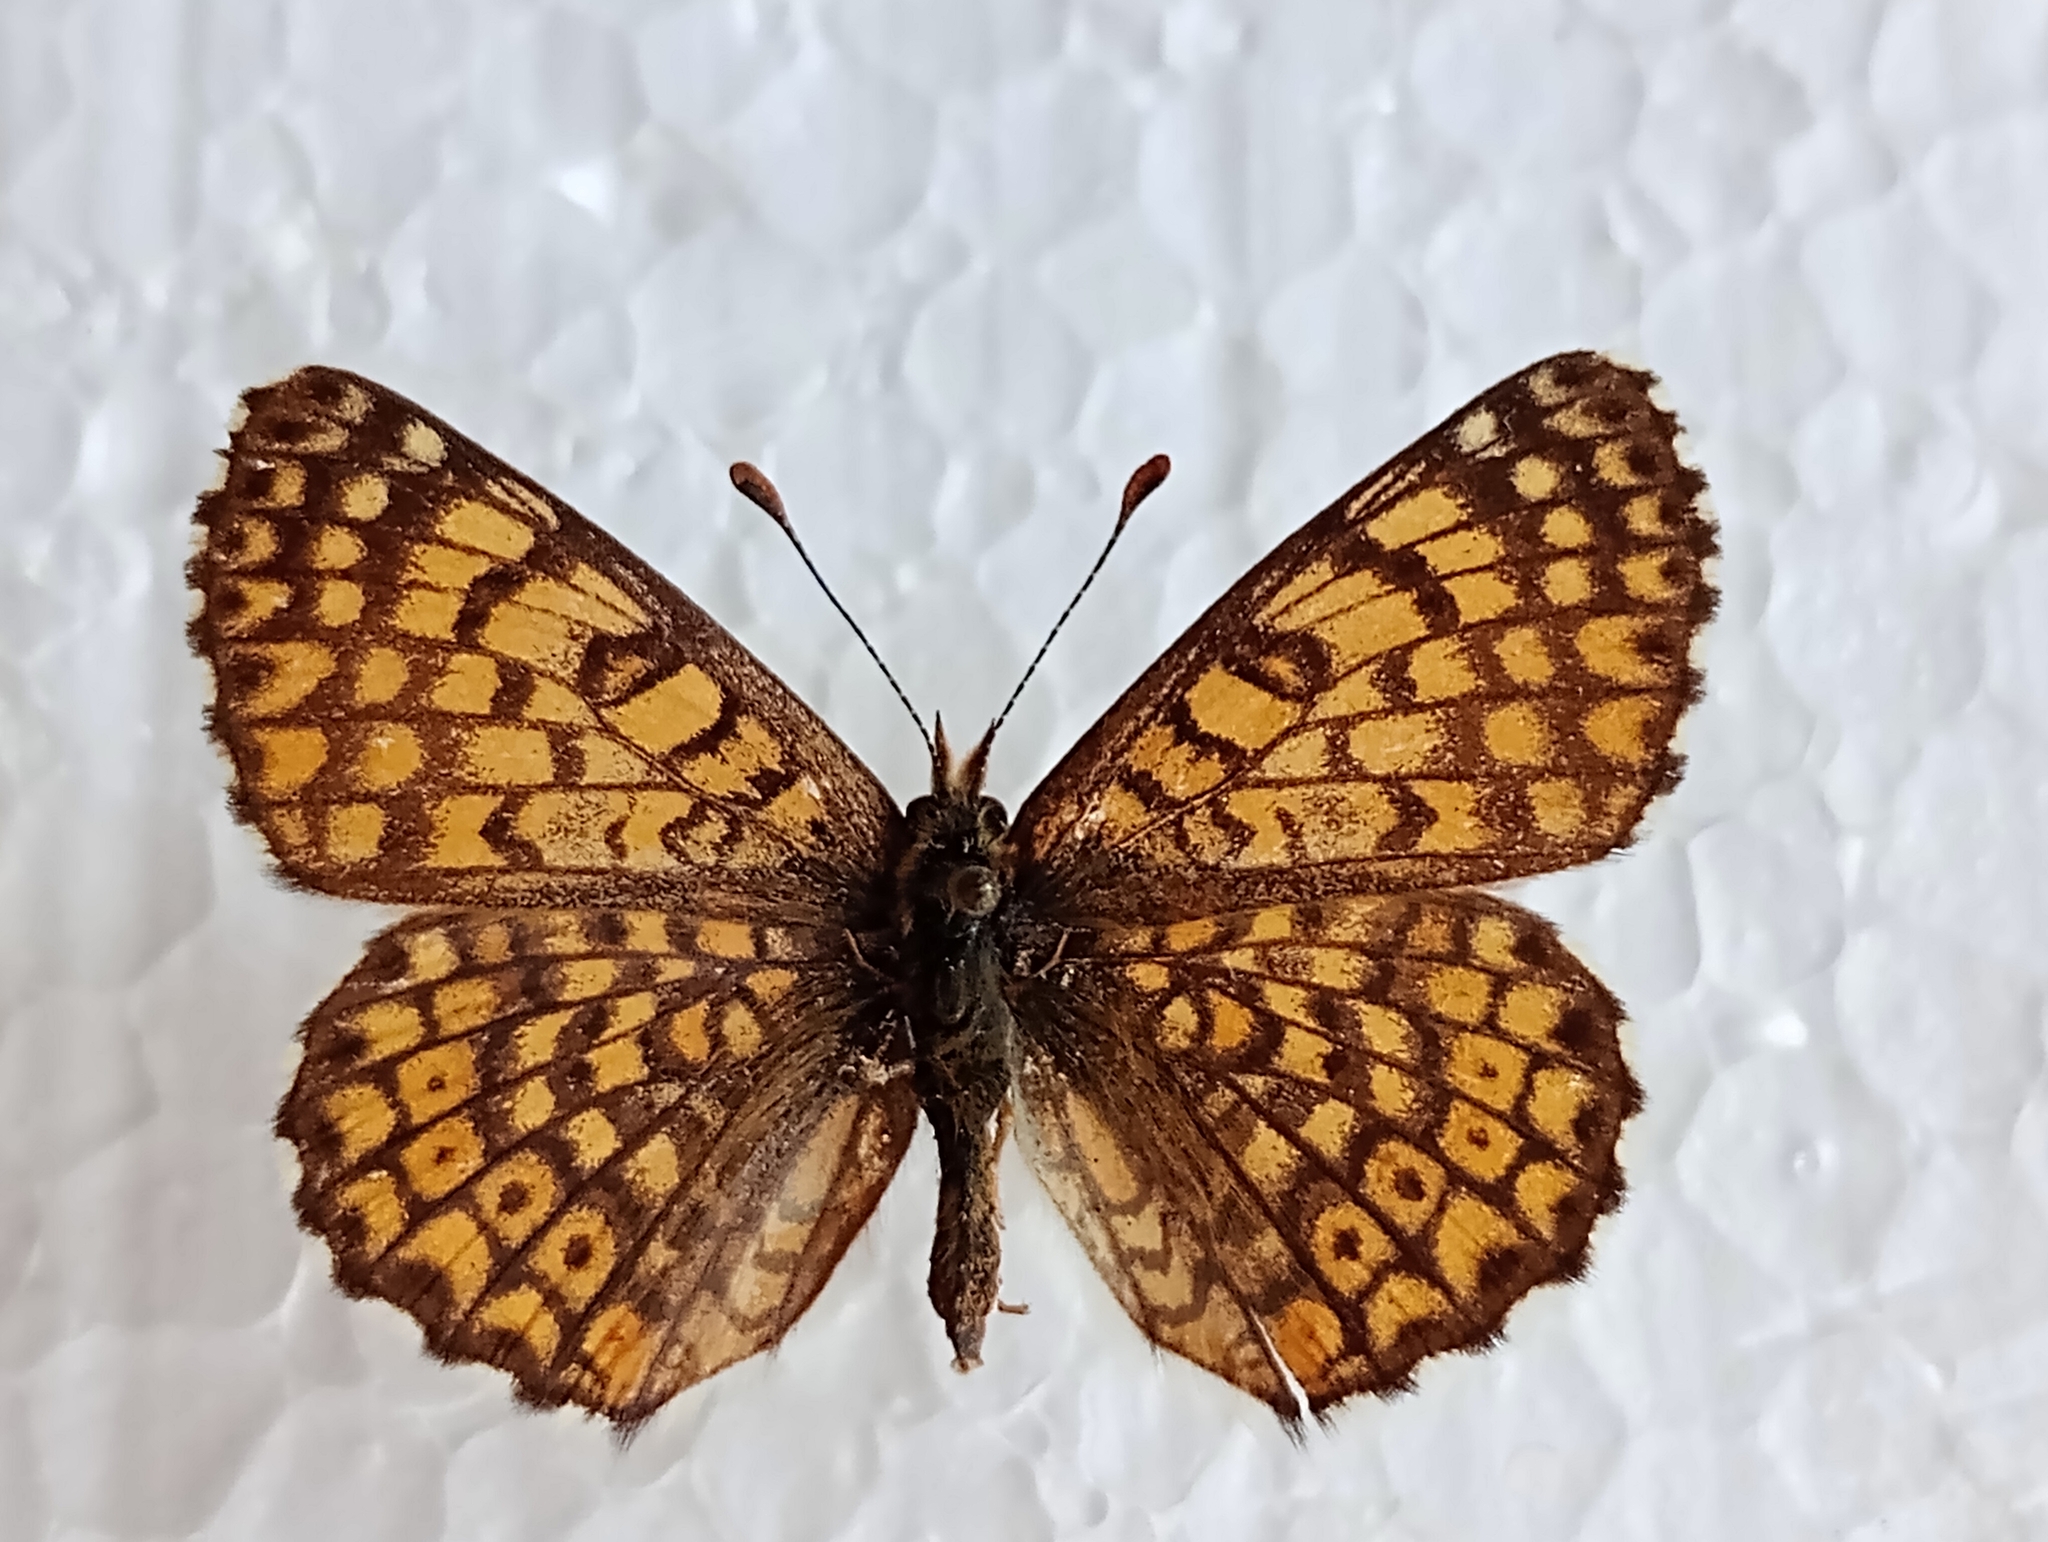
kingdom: Animalia
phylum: Arthropoda
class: Insecta
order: Lepidoptera
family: Nymphalidae
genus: Melitaea
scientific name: Melitaea cinxia
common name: Glanville fritillary
